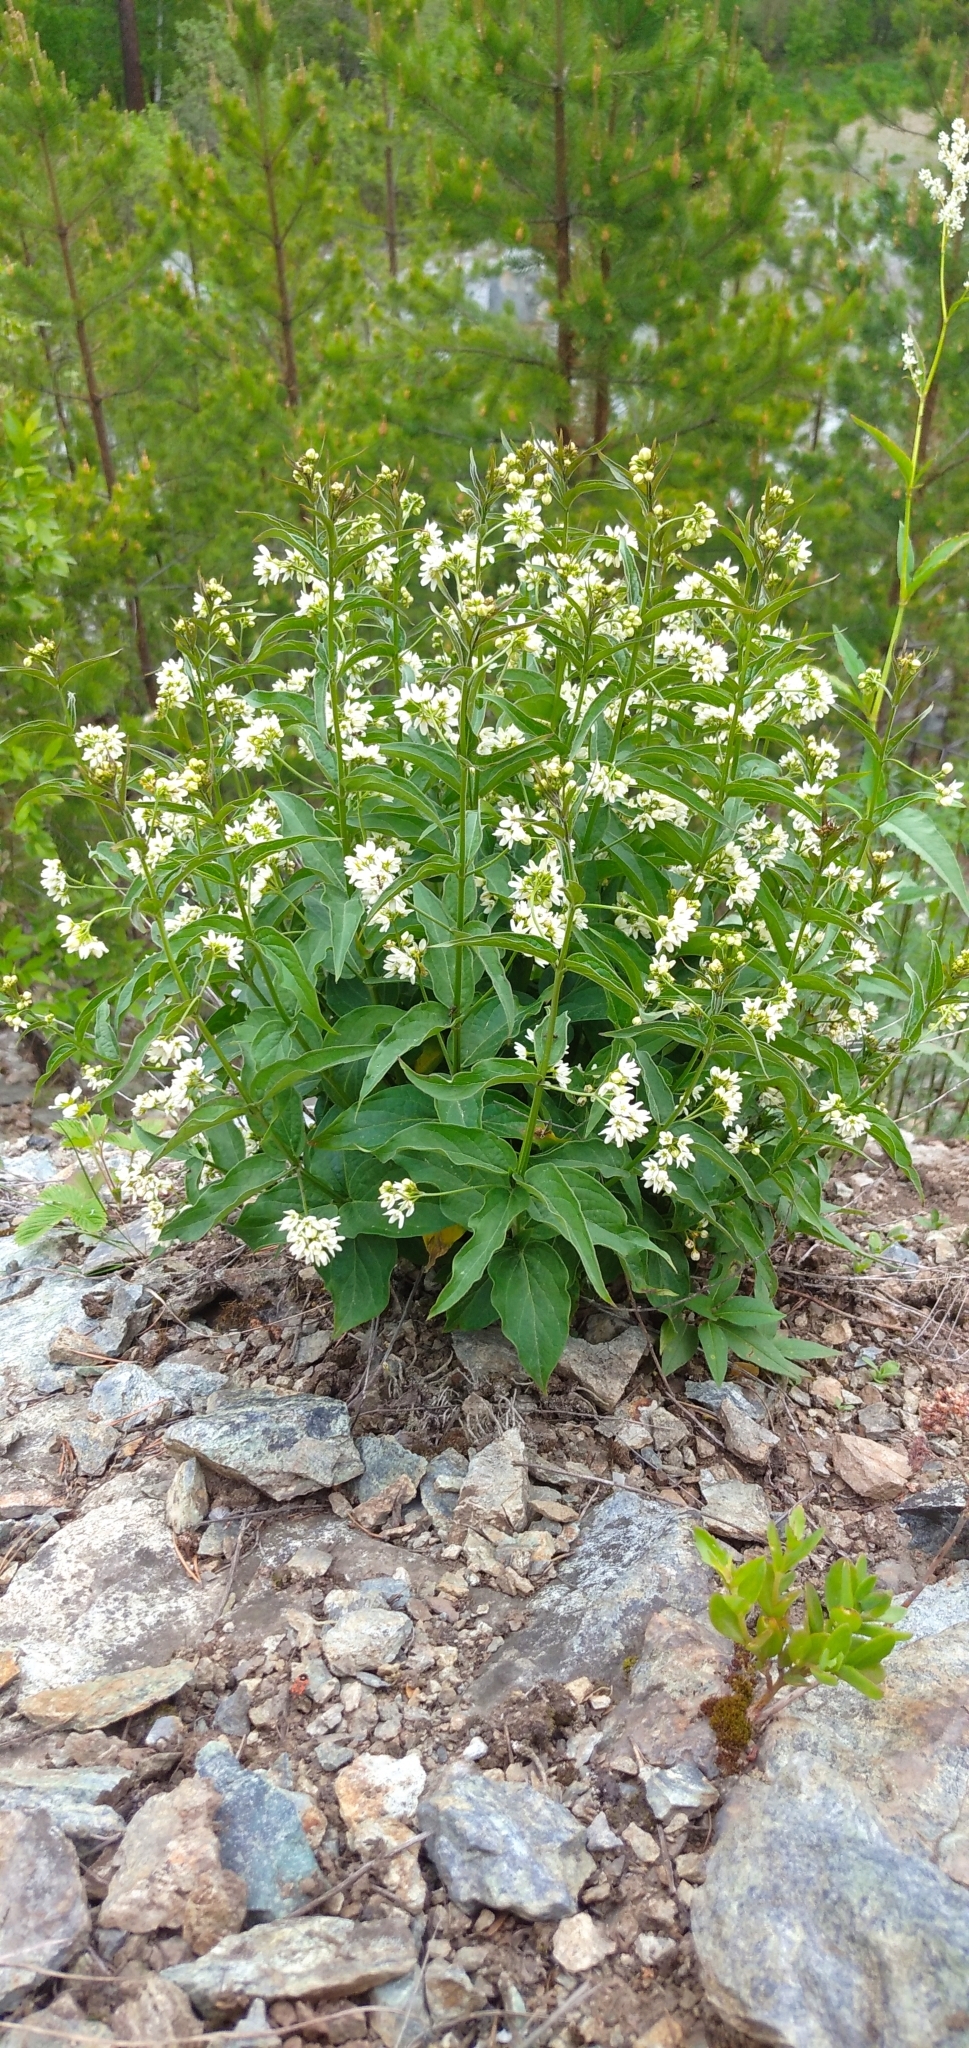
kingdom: Plantae
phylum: Tracheophyta
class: Magnoliopsida
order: Gentianales
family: Apocynaceae
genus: Vincetoxicum
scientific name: Vincetoxicum hirundinaria
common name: White swallowwort
